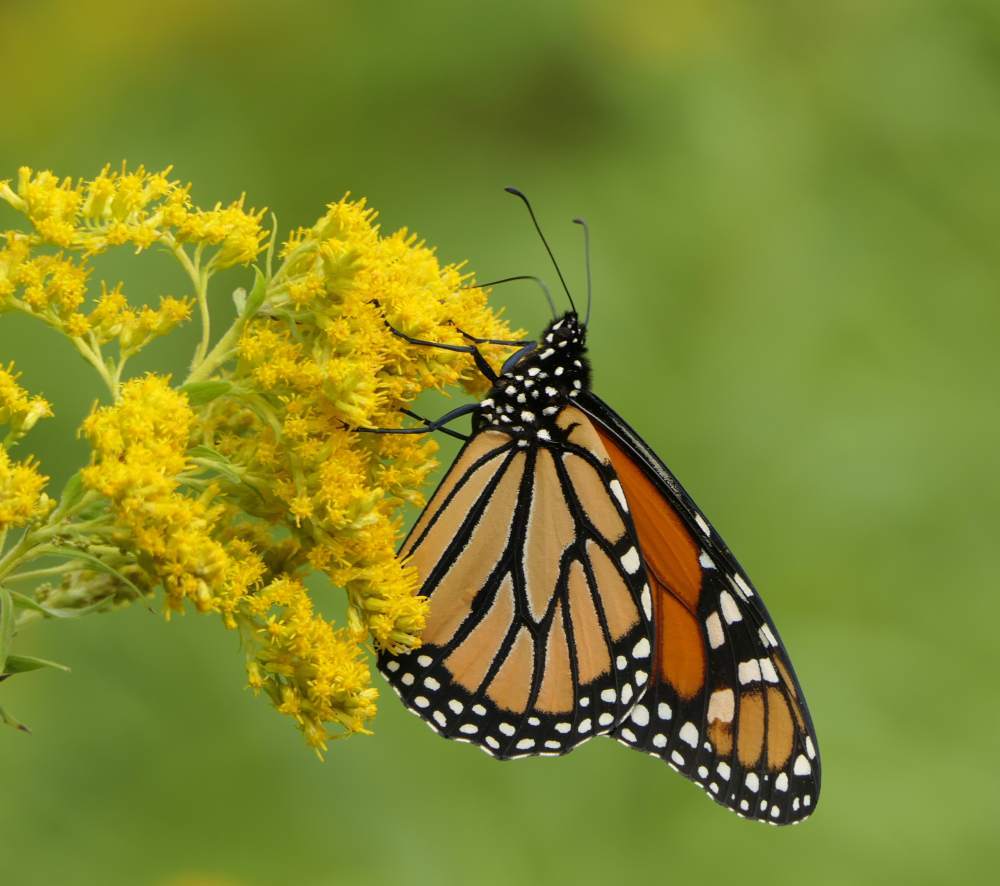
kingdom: Animalia
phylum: Arthropoda
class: Insecta
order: Lepidoptera
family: Nymphalidae
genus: Danaus
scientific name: Danaus plexippus
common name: Monarch
